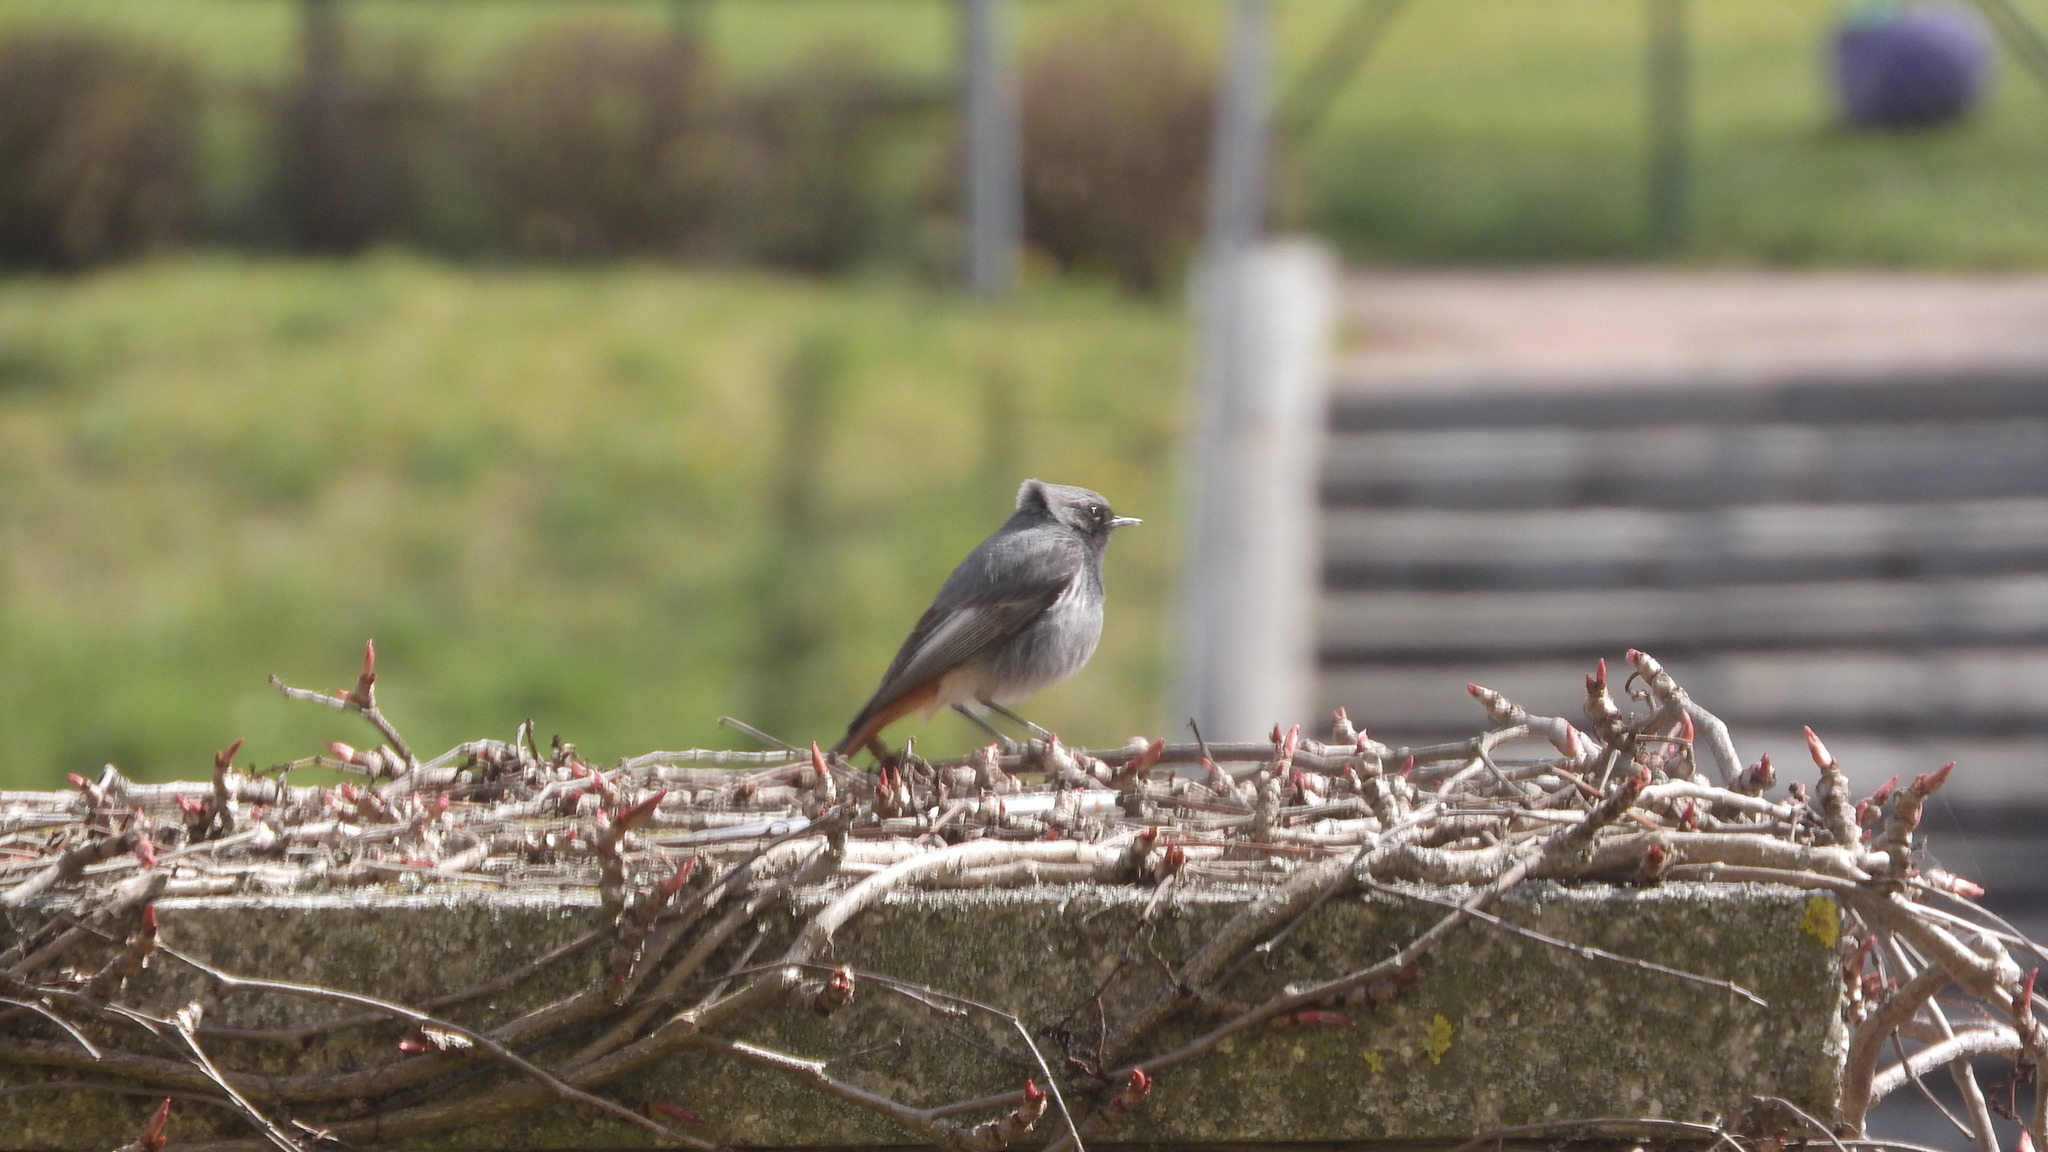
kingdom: Animalia
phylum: Chordata
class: Aves
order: Passeriformes
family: Muscicapidae
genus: Phoenicurus
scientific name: Phoenicurus ochruros
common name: Black redstart
